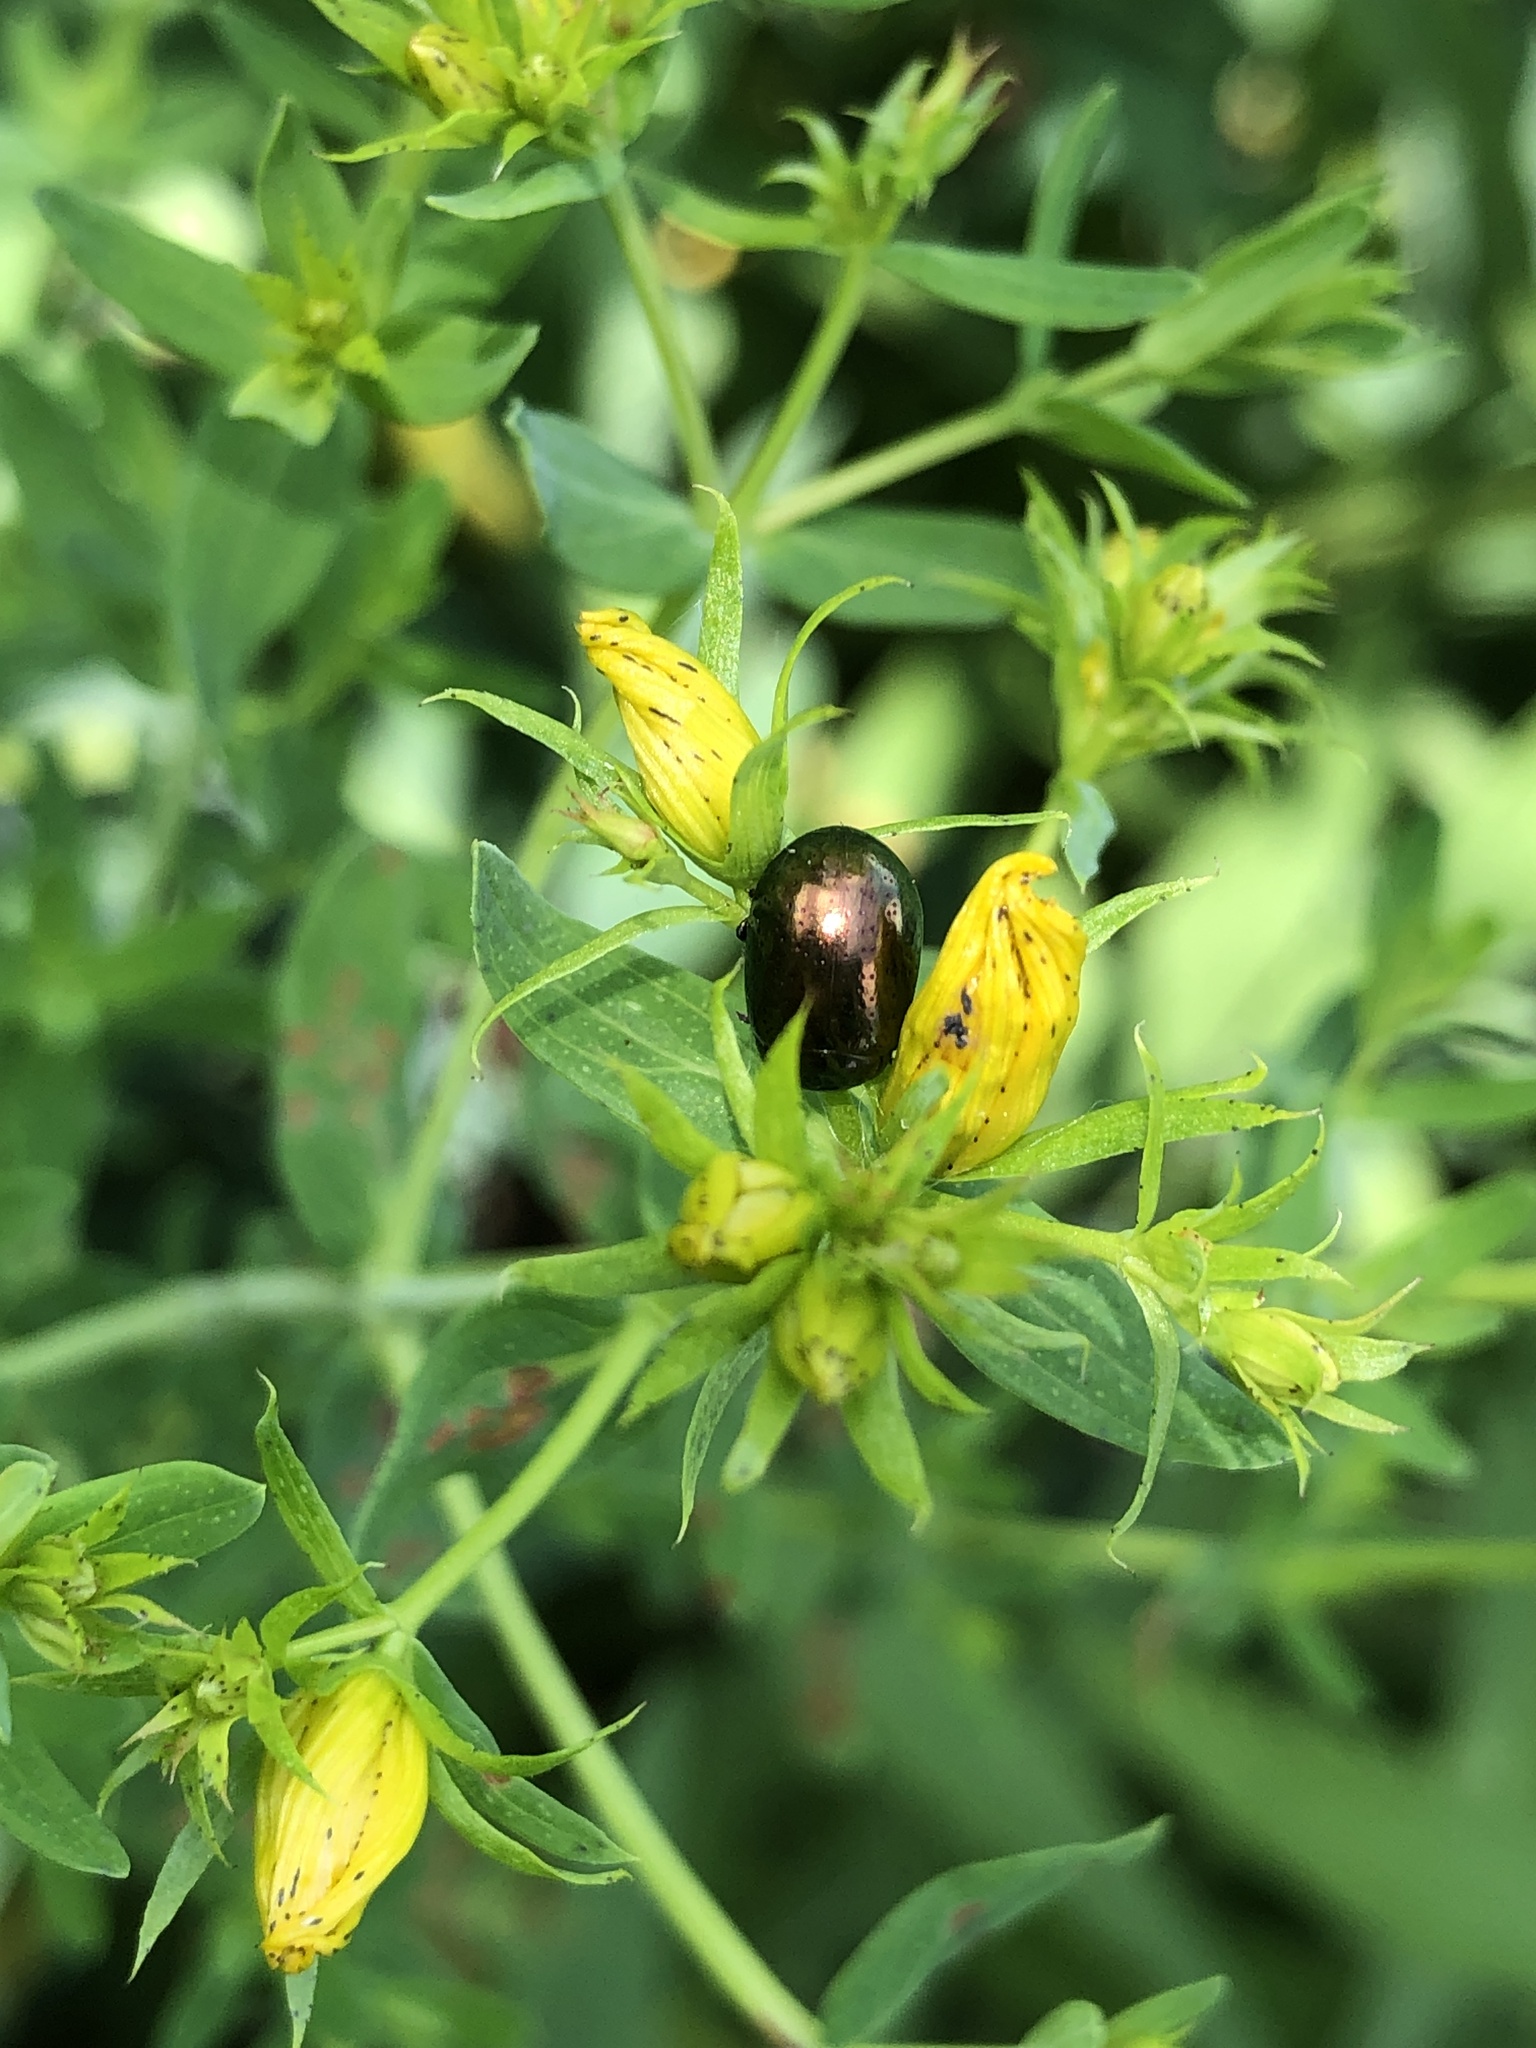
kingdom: Animalia
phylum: Arthropoda
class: Insecta
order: Coleoptera
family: Chrysomelidae
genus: Chrysolina
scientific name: Chrysolina hyperici
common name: St. johnswort beetle
